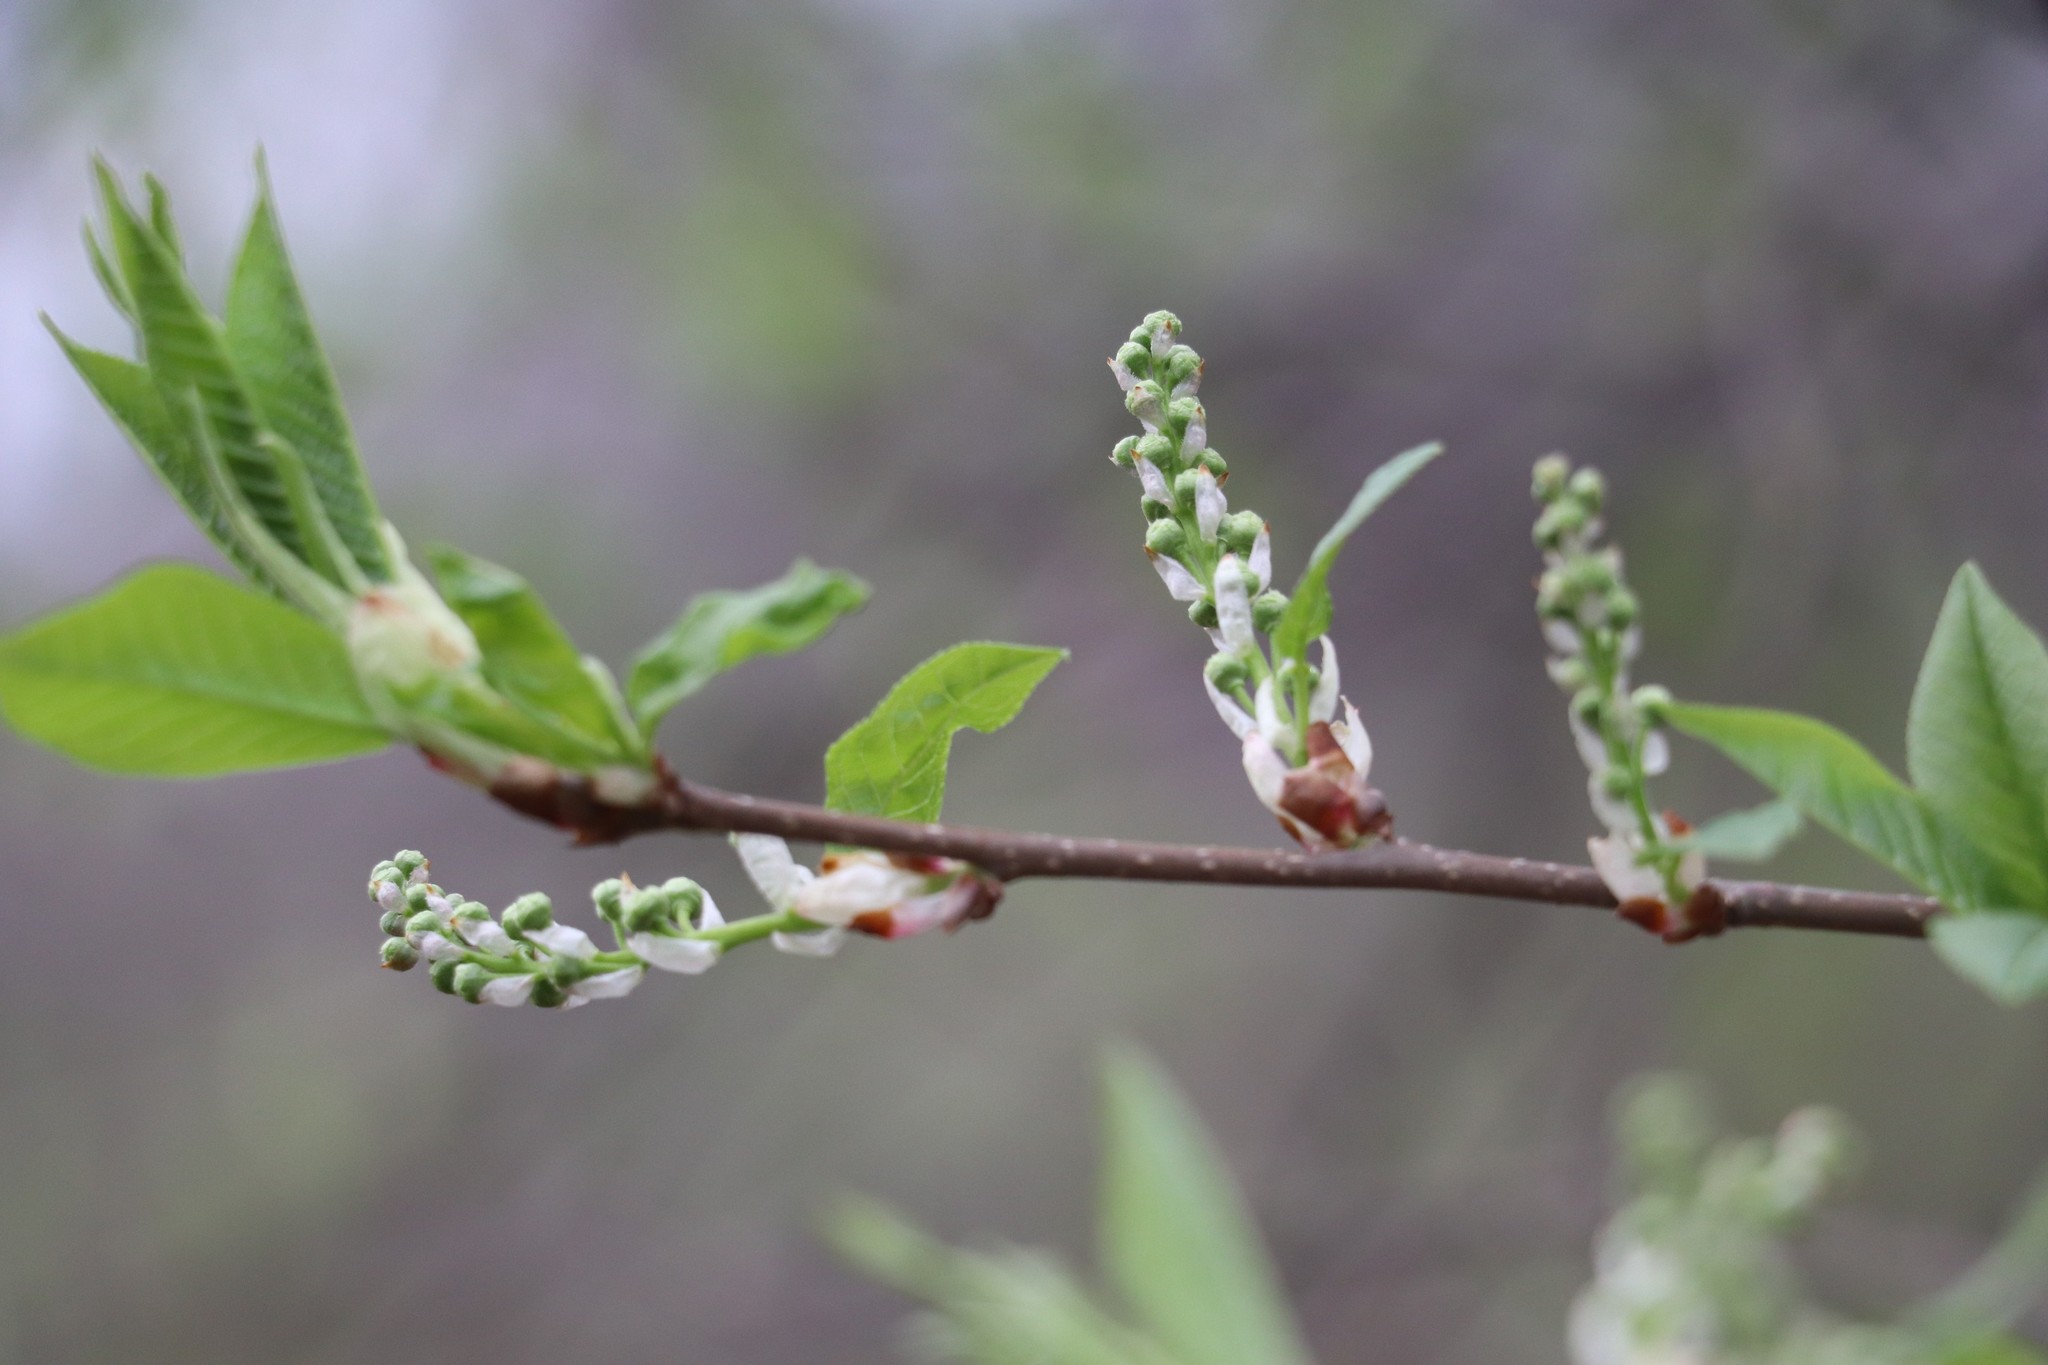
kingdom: Plantae
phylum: Tracheophyta
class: Magnoliopsida
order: Rosales
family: Rosaceae
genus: Prunus
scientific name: Prunus padus
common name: Bird cherry
